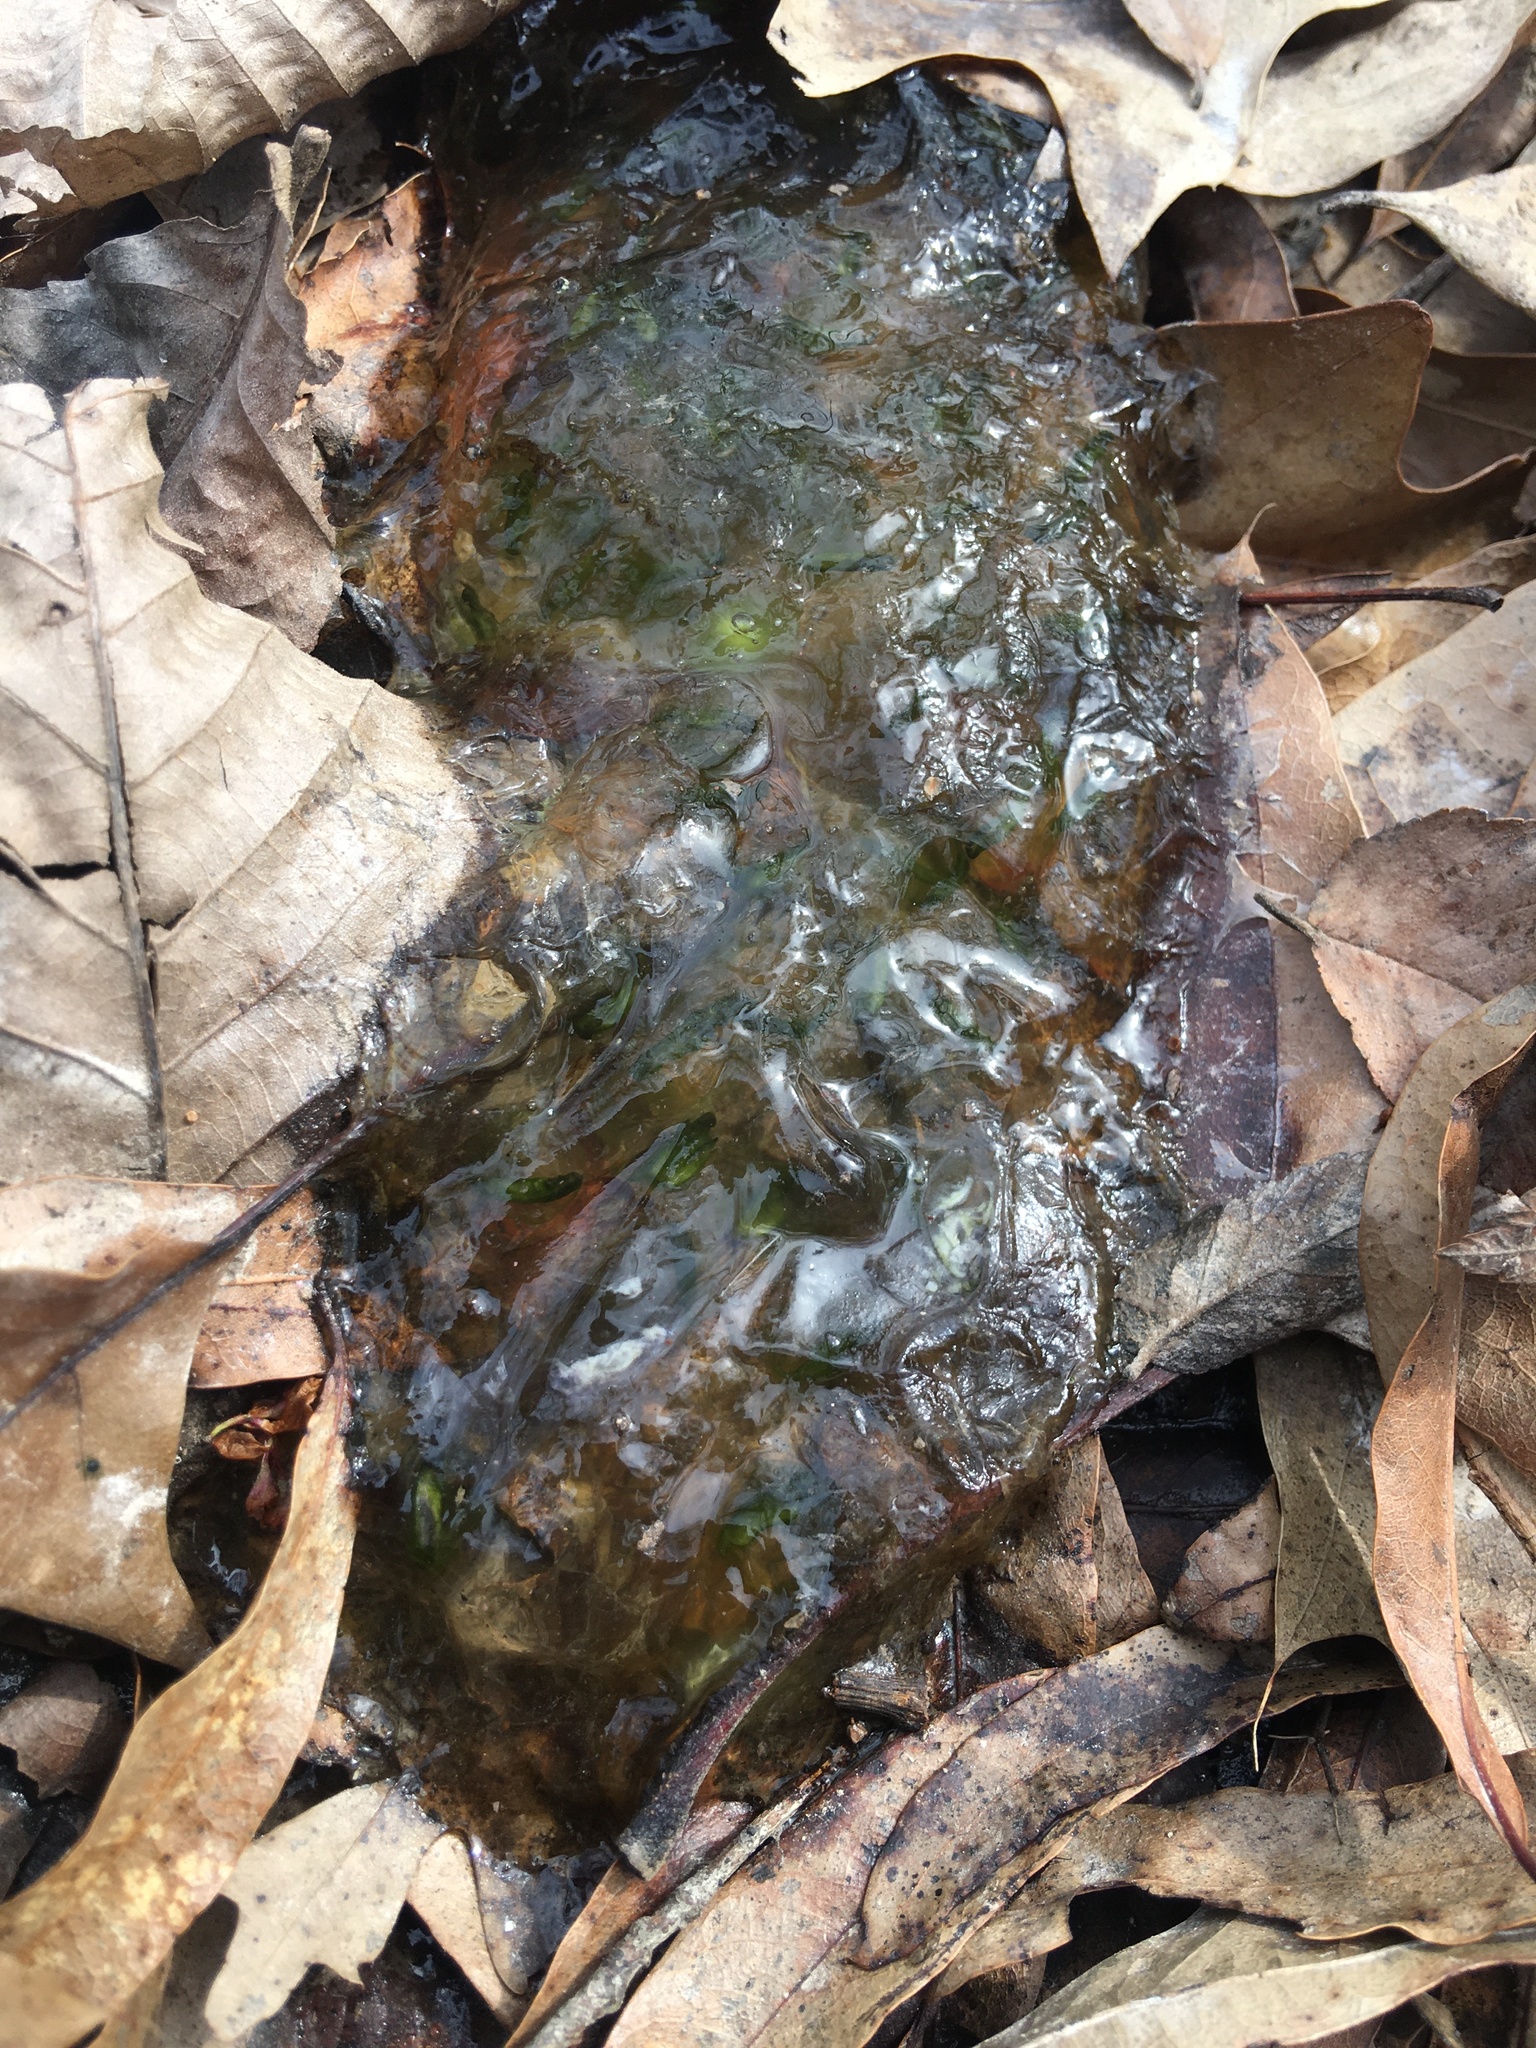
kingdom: Bacteria
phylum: Cyanobacteria
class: Cyanobacteriia
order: Cyanobacteriales
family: Nostocaceae
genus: Nostoc
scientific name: Nostoc commune
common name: Star jelly
